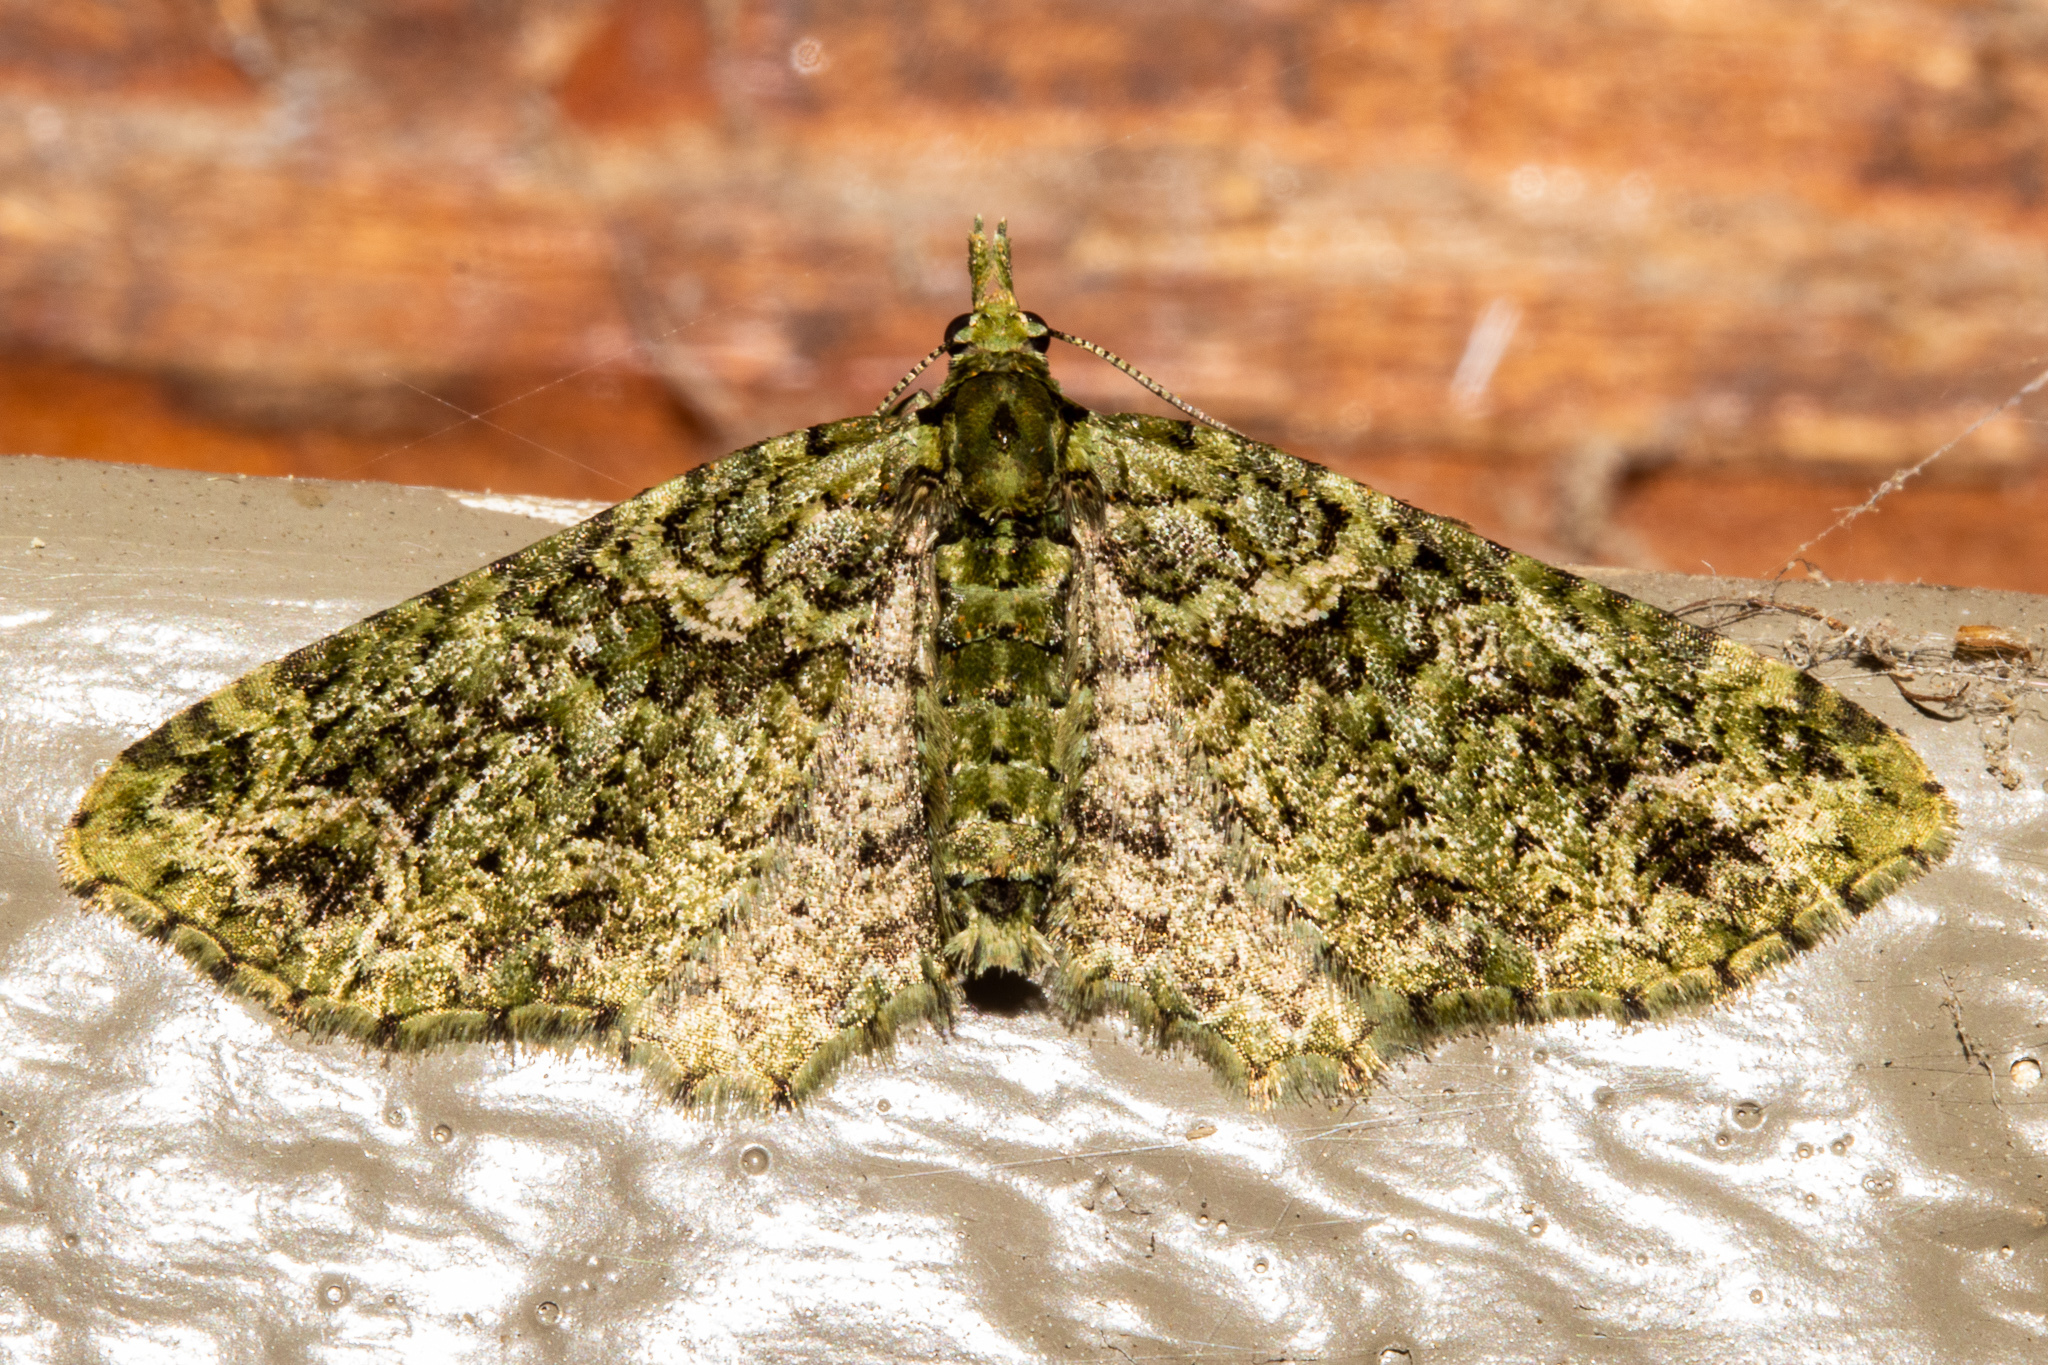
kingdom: Animalia
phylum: Arthropoda
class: Insecta
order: Lepidoptera
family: Geometridae
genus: Pasiphila
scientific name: Pasiphila muscosata
